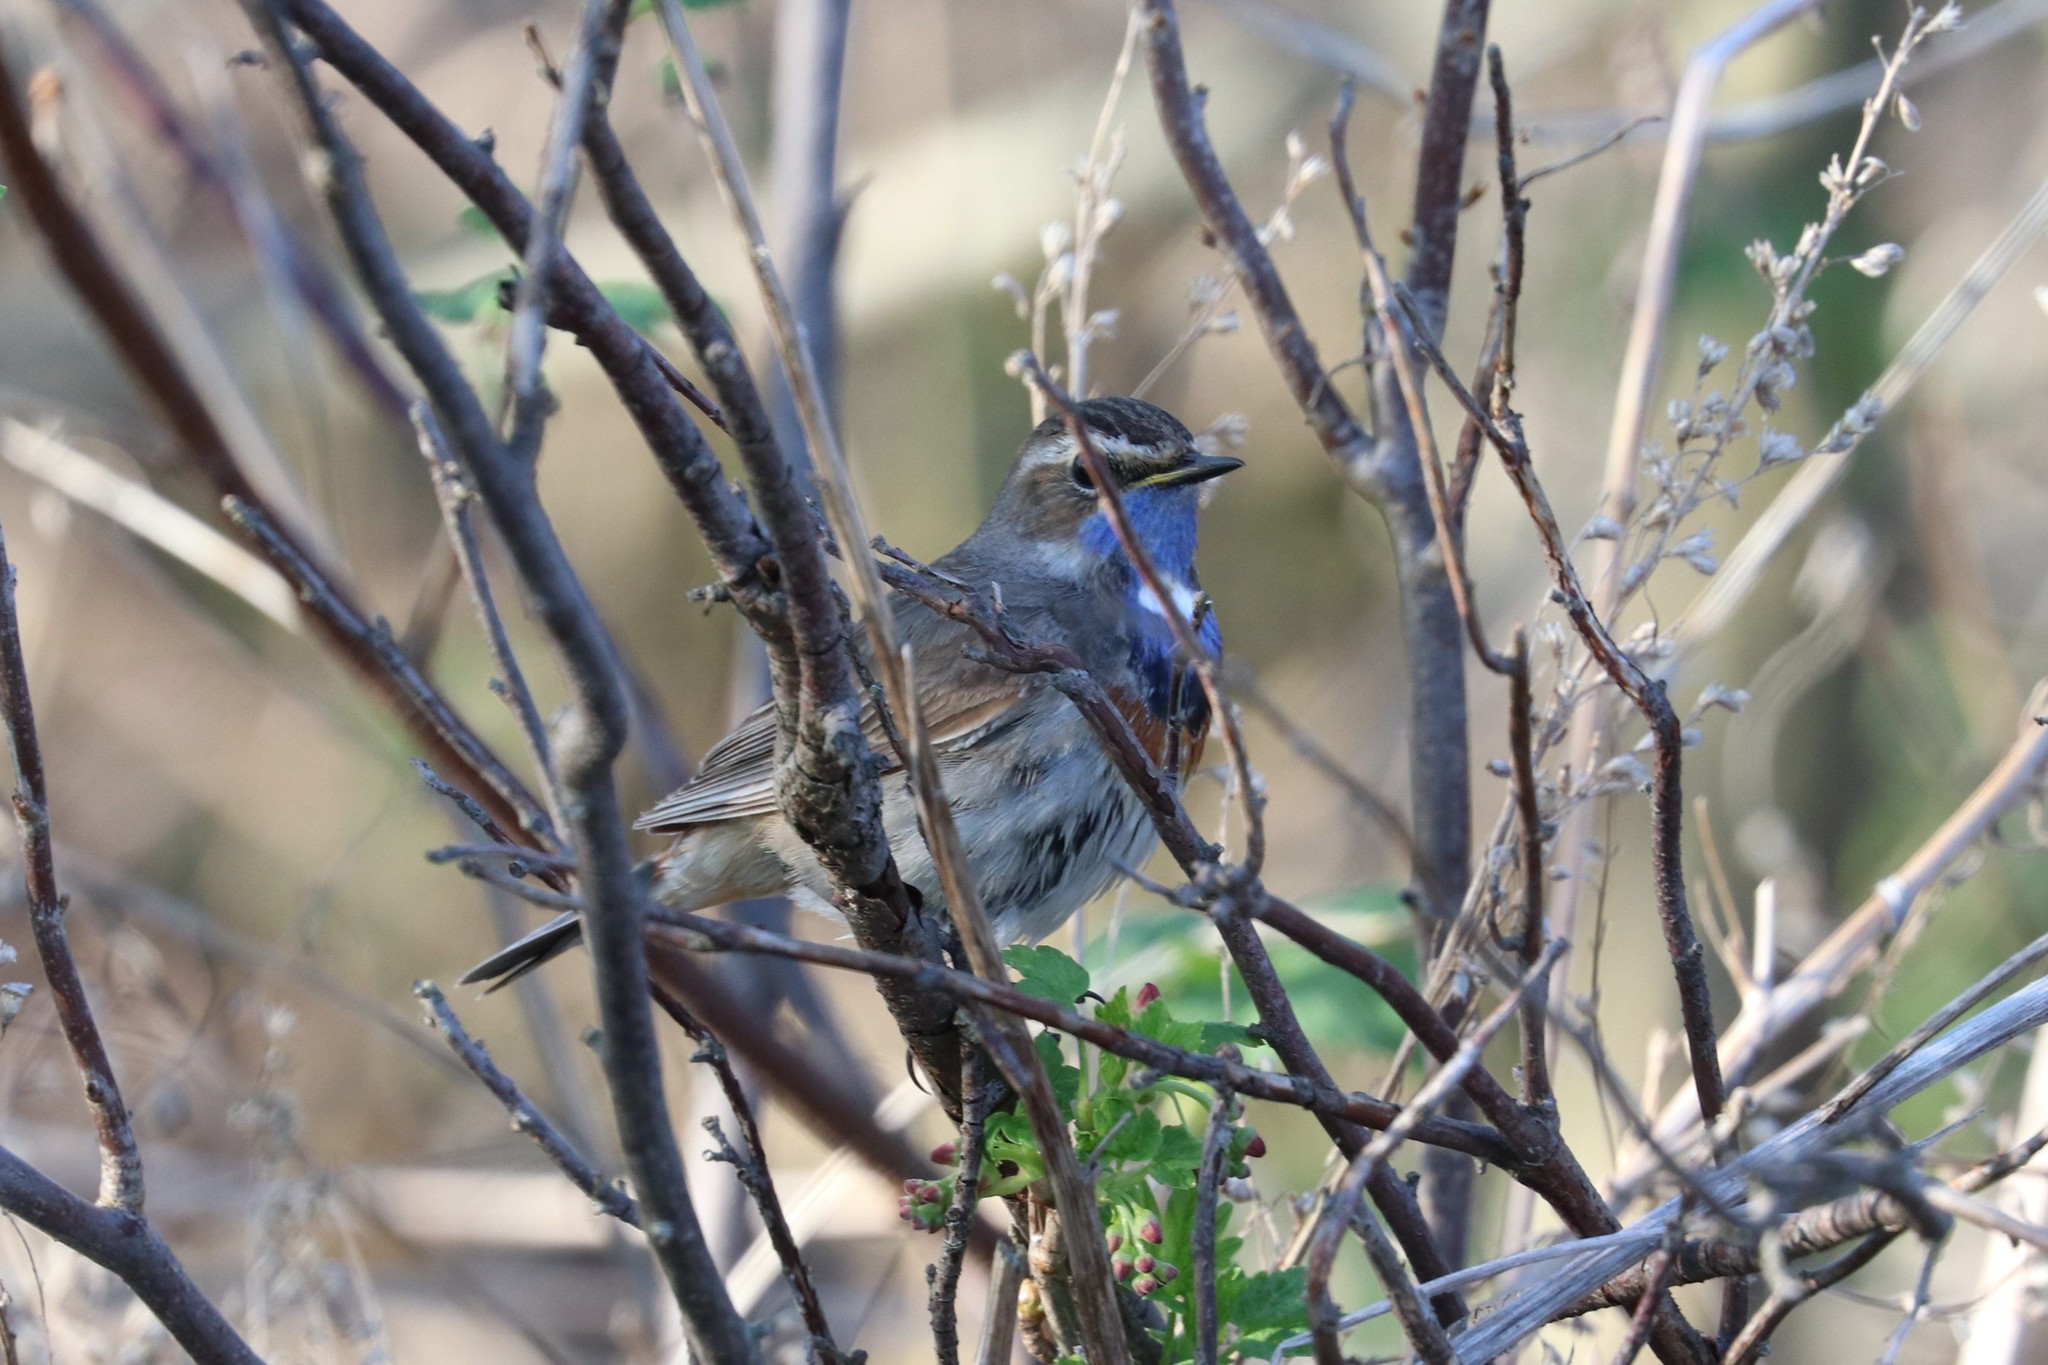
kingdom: Animalia
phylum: Chordata
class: Aves
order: Passeriformes
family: Muscicapidae
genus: Luscinia
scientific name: Luscinia svecica
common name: Bluethroat
